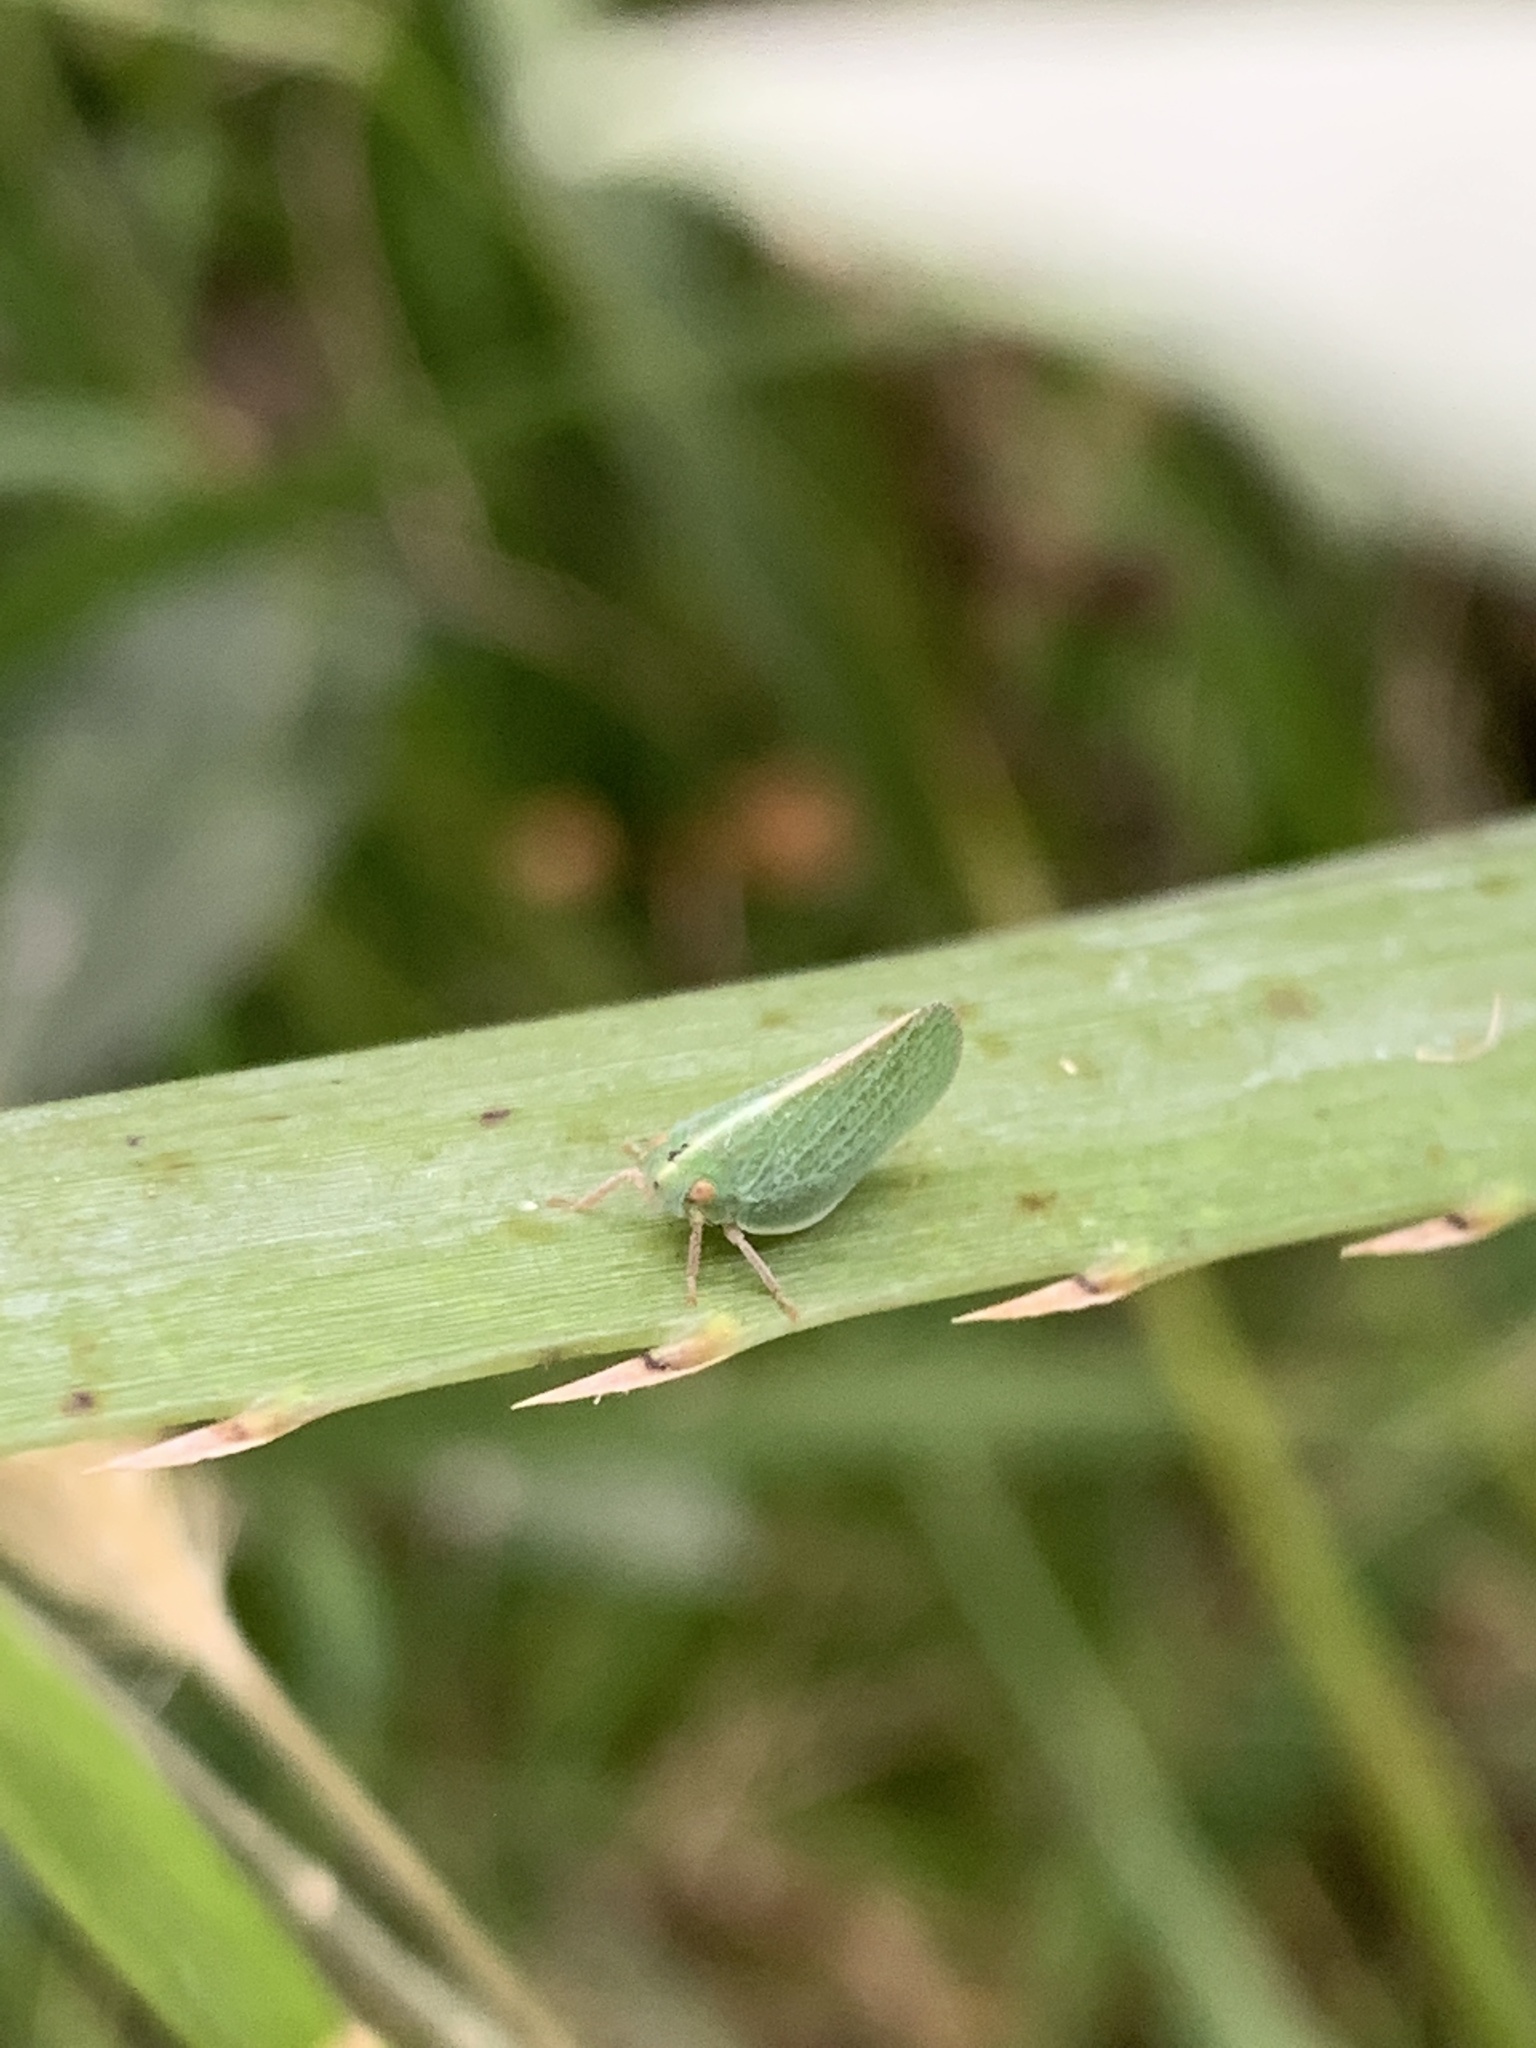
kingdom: Animalia
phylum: Arthropoda
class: Insecta
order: Hemiptera
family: Acanaloniidae
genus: Acanalonia
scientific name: Acanalonia chloris
